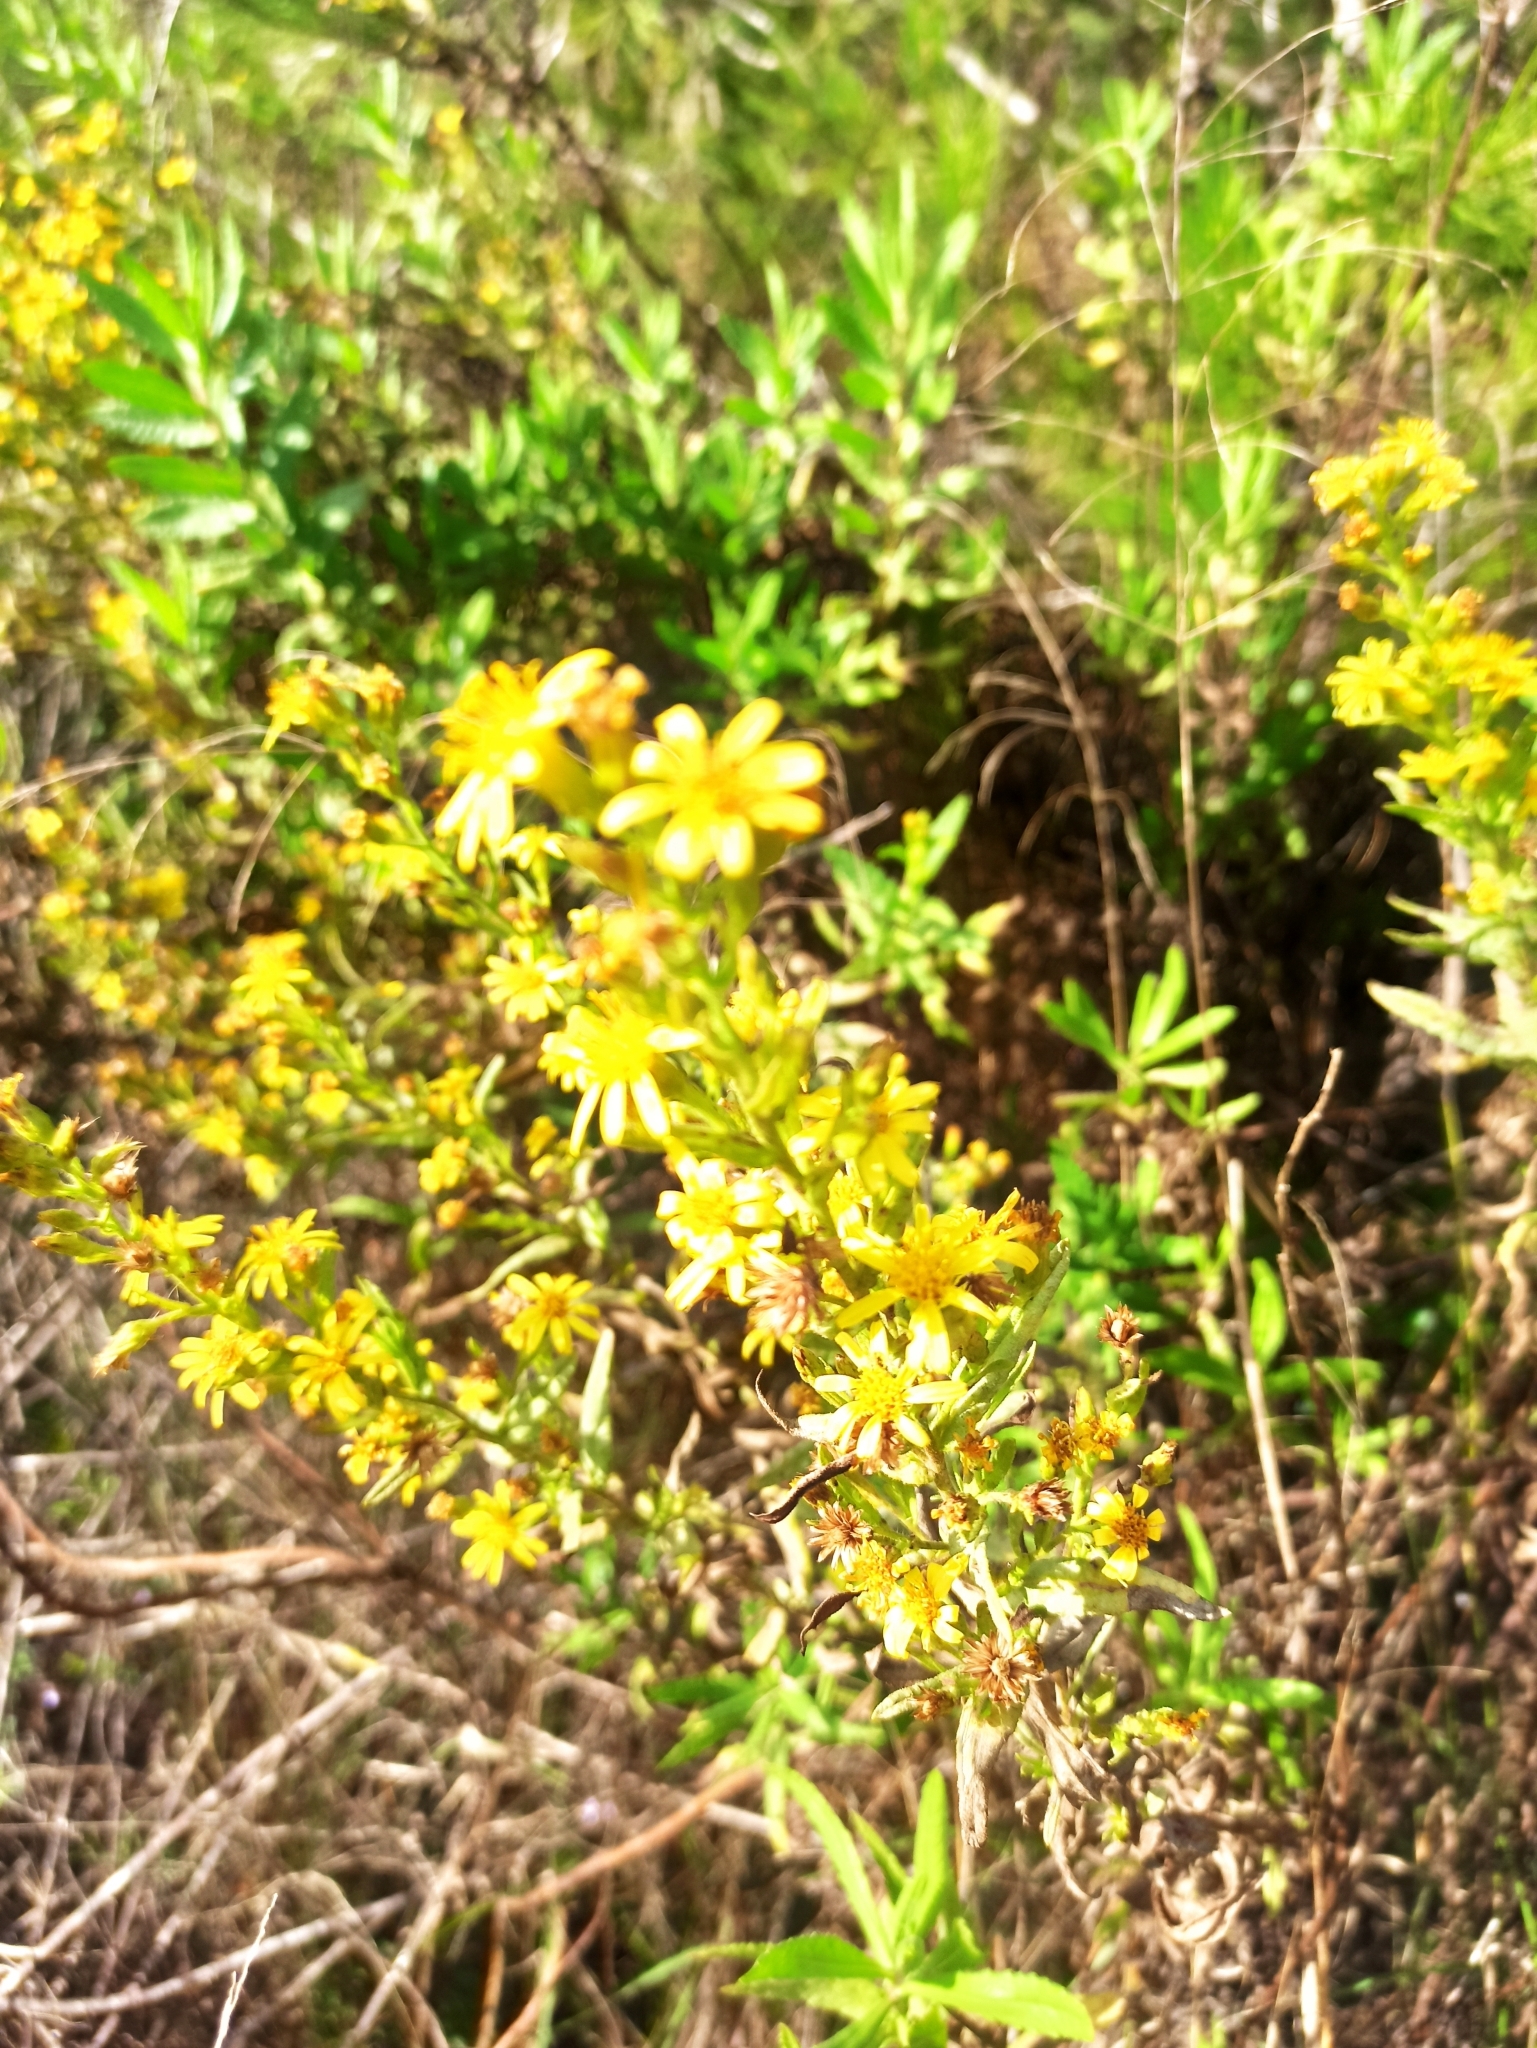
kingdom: Plantae
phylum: Tracheophyta
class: Magnoliopsida
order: Asterales
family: Asteraceae
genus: Dittrichia
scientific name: Dittrichia viscosa
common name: Woody fleabane
